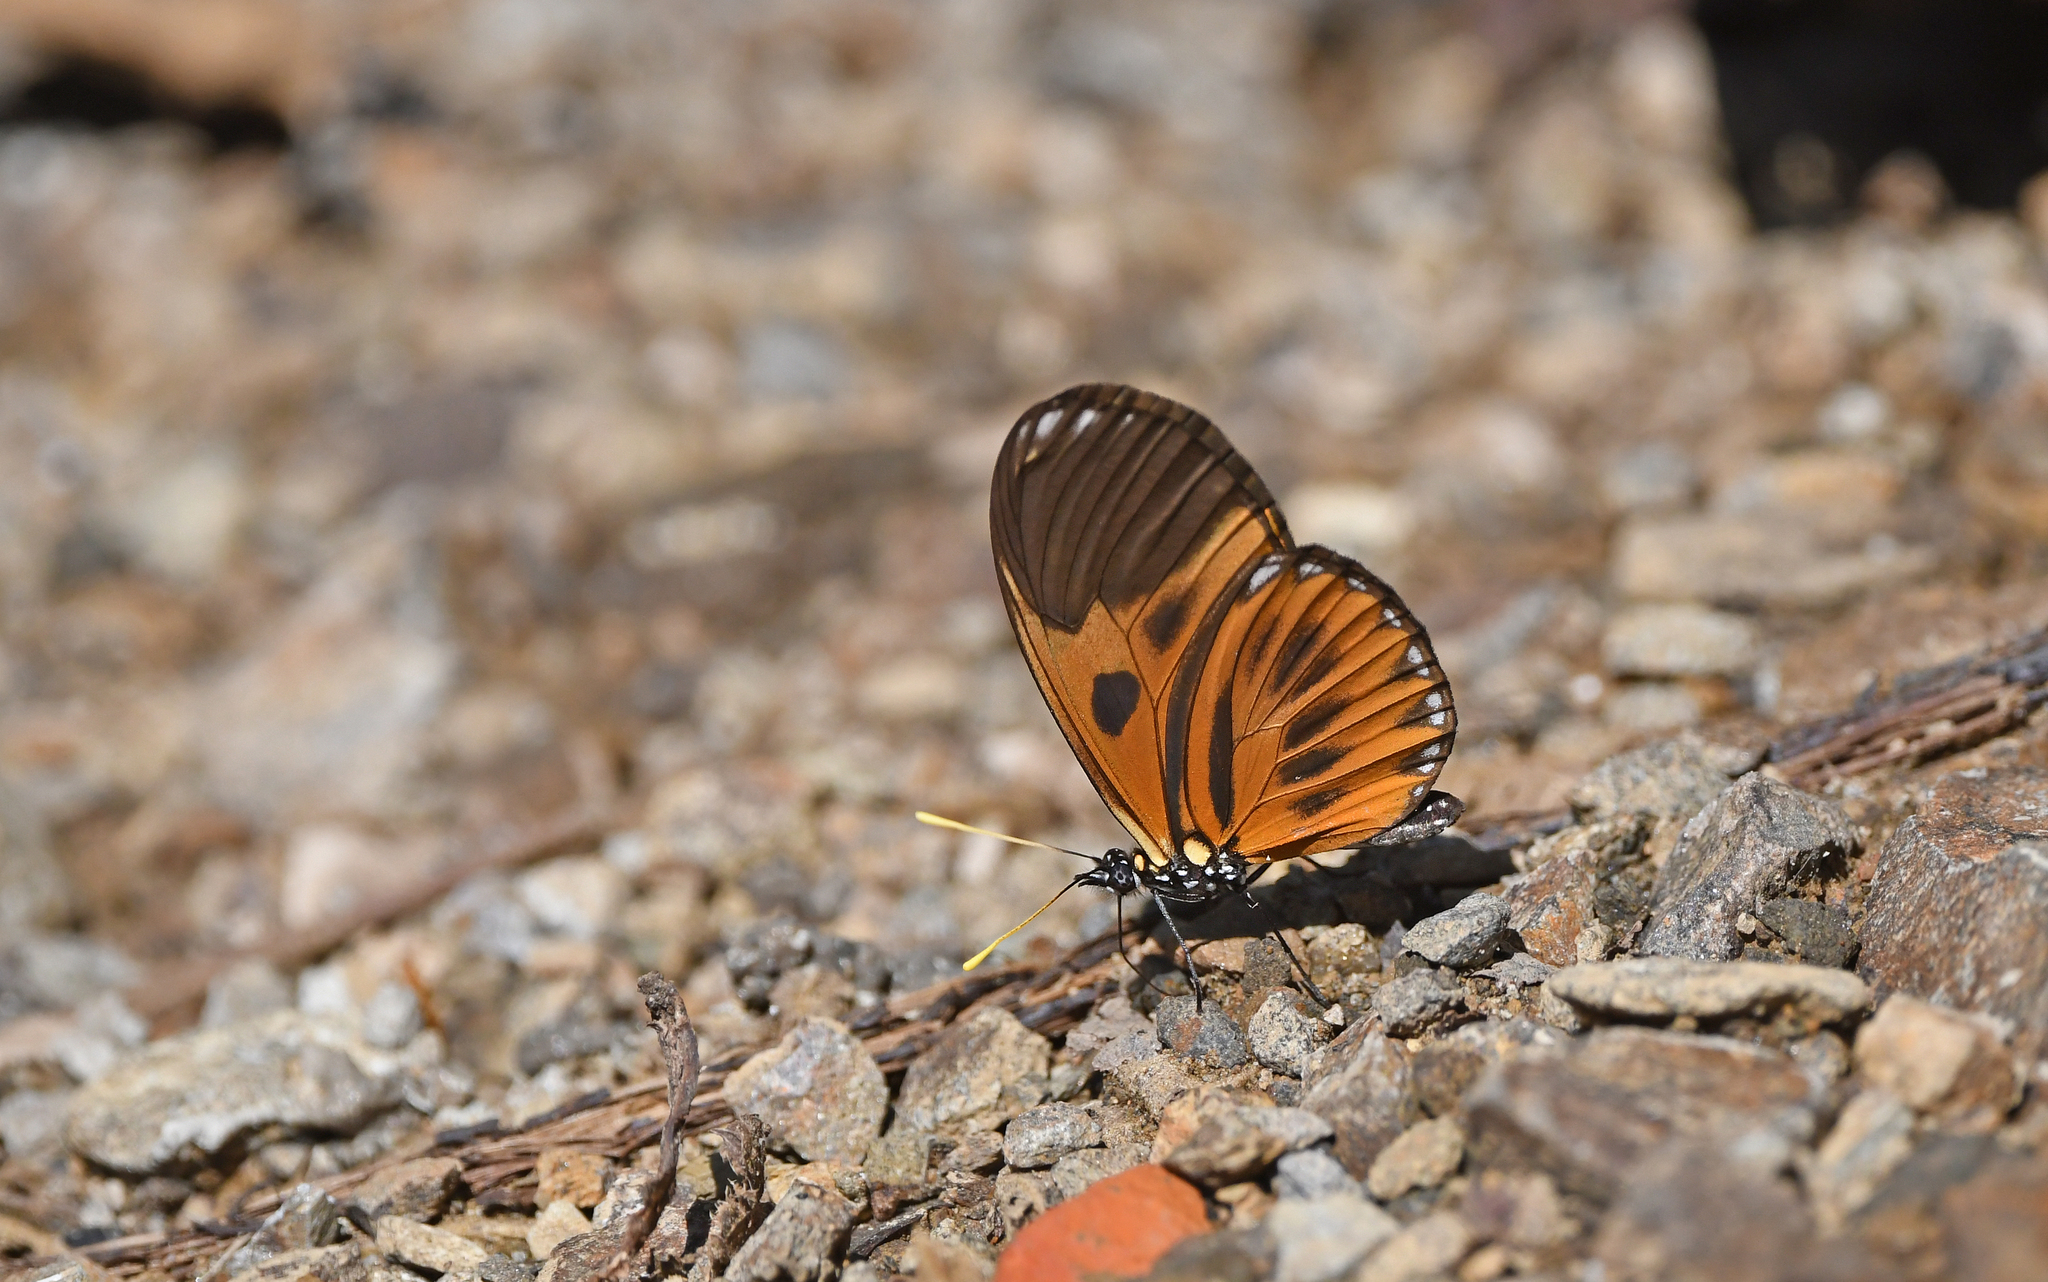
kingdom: Animalia
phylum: Arthropoda
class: Insecta
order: Lepidoptera
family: Nymphalidae
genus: Eueides
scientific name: Eueides lampeto
